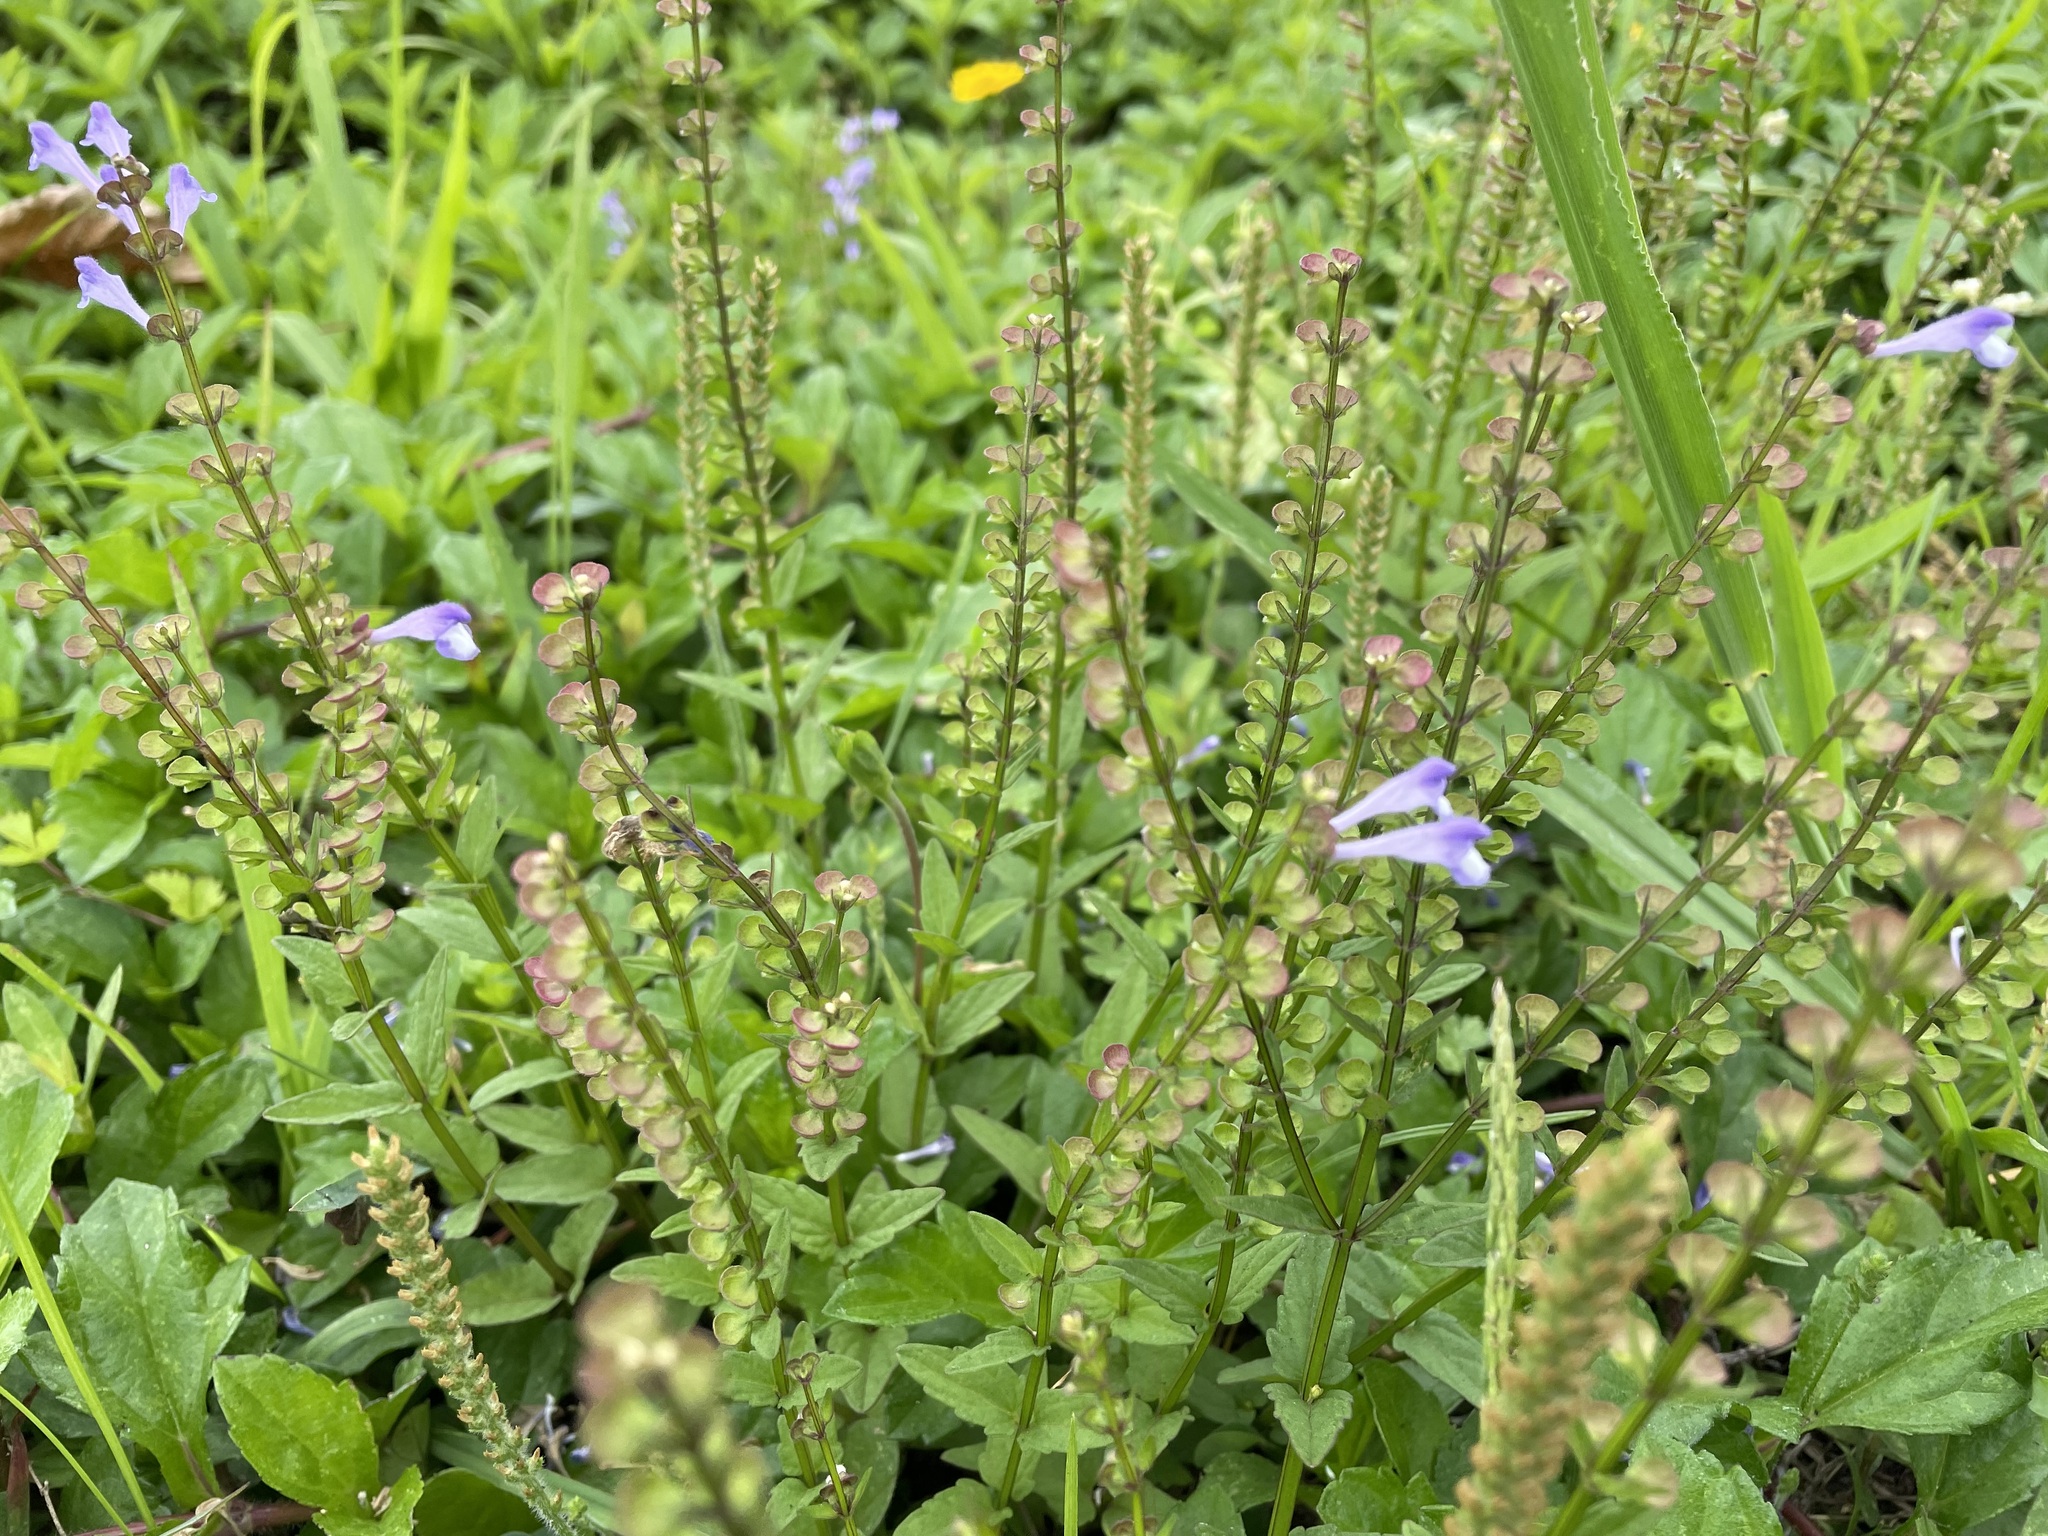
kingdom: Plantae
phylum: Tracheophyta
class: Magnoliopsida
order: Lamiales
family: Lamiaceae
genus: Scutellaria
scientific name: Scutellaria barbata
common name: Barbed skullcap
